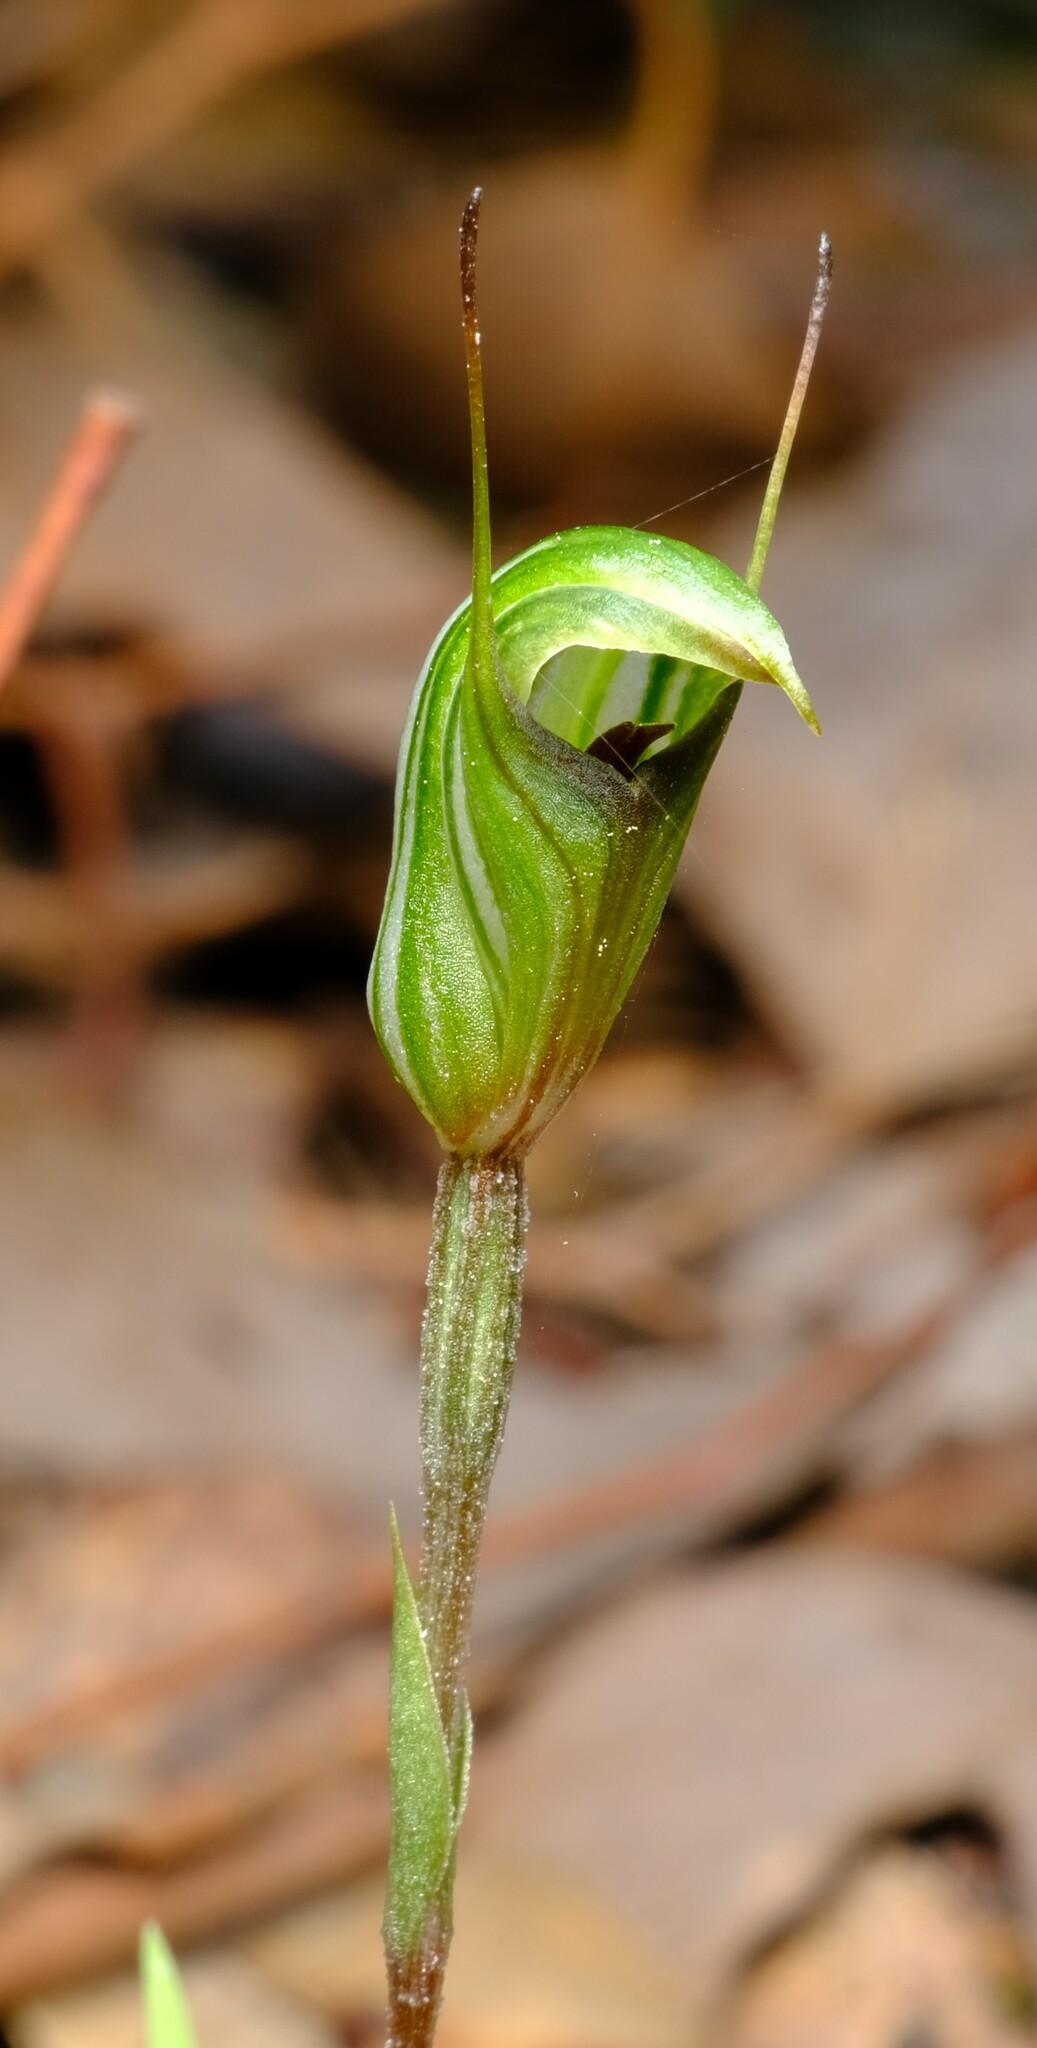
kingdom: Plantae
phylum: Tracheophyta
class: Liliopsida
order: Asparagales
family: Orchidaceae
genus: Pterostylis
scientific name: Pterostylis concinna
